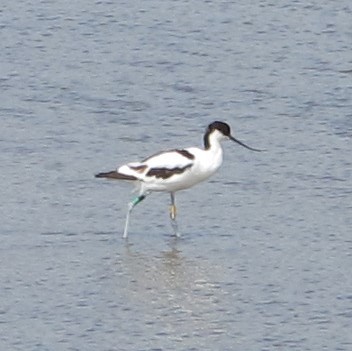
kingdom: Animalia
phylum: Chordata
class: Aves
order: Charadriiformes
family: Recurvirostridae
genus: Recurvirostra
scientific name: Recurvirostra avosetta
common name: Pied avocet
